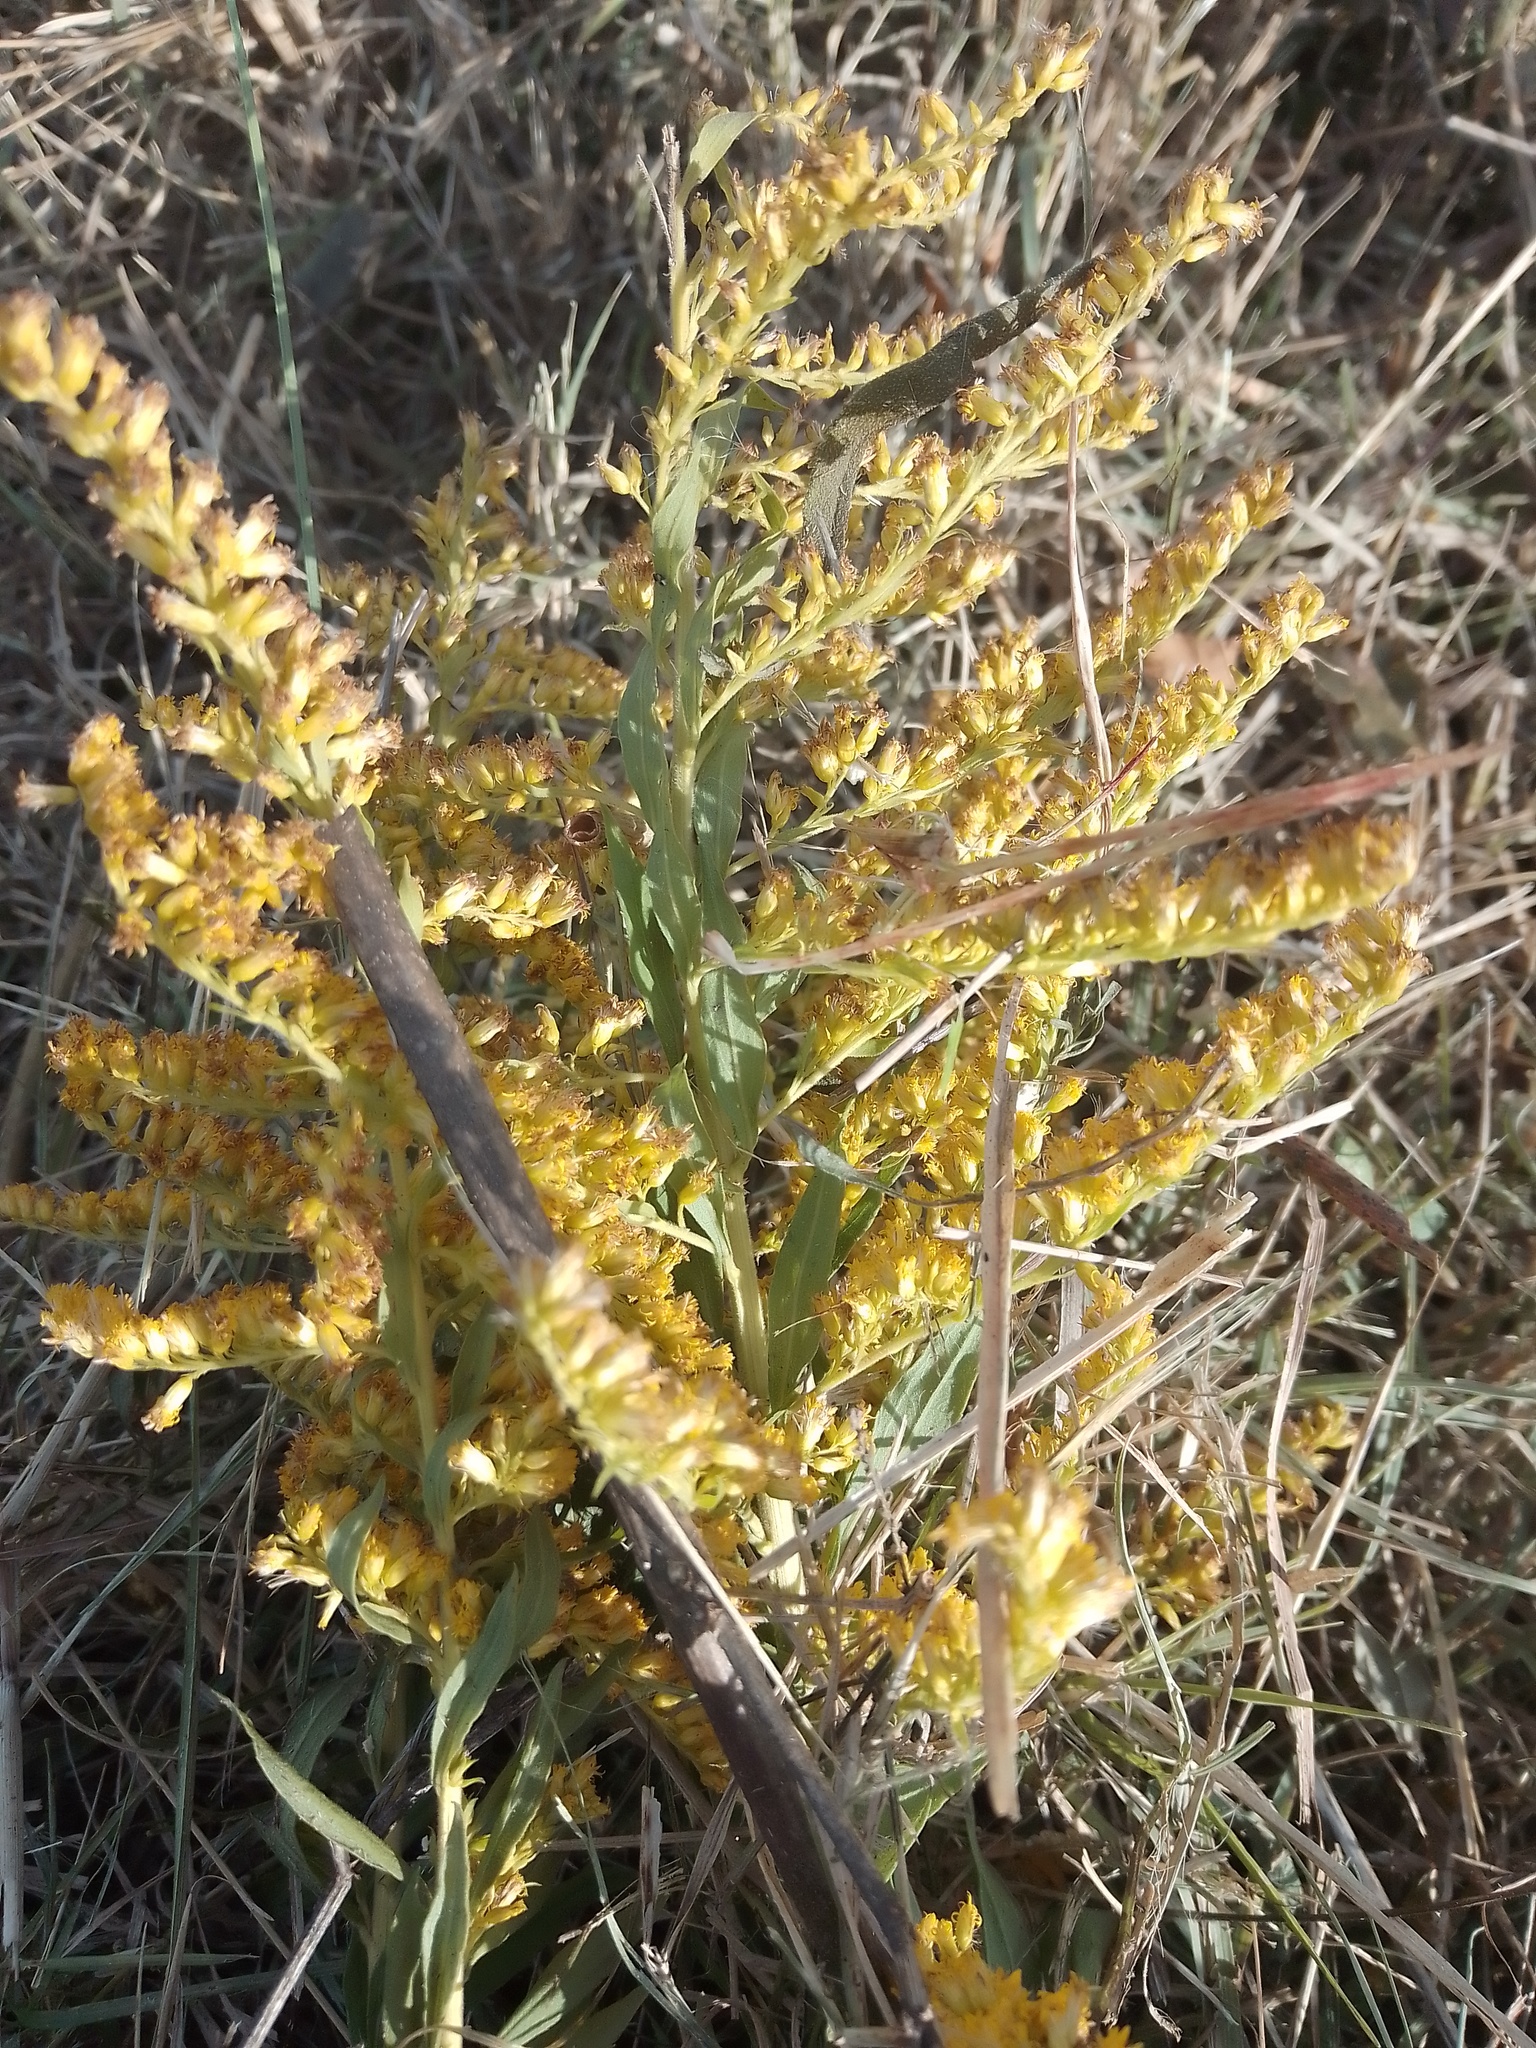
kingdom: Plantae
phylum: Tracheophyta
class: Magnoliopsida
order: Asterales
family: Asteraceae
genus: Solidago
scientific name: Solidago chilensis
